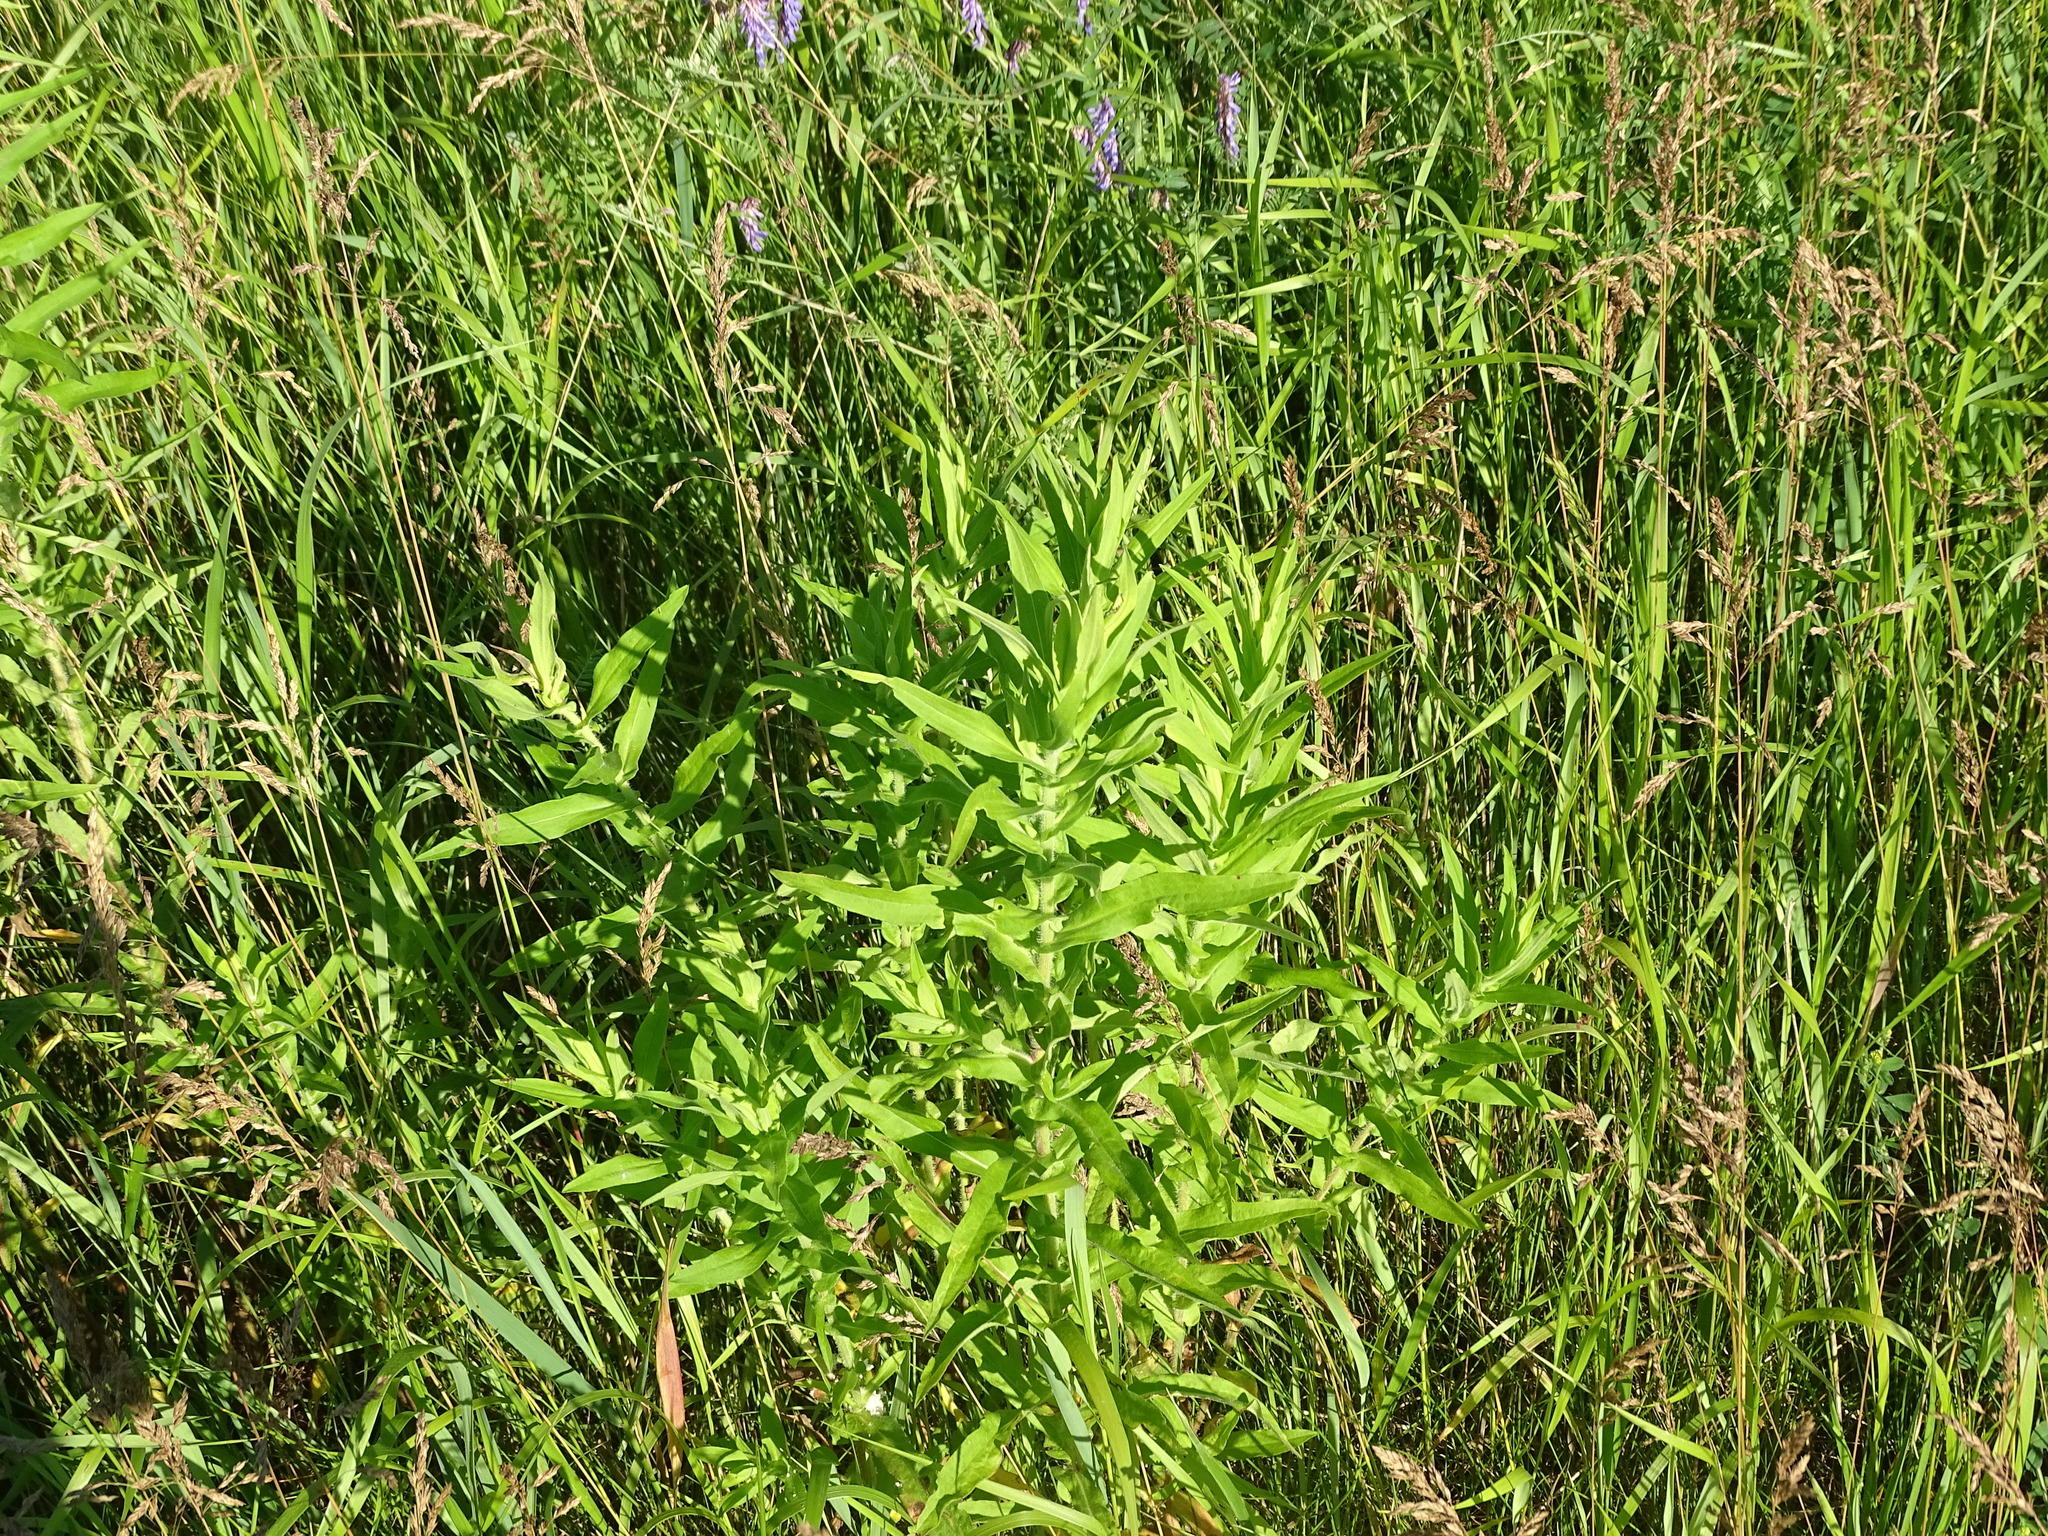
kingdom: Plantae
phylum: Tracheophyta
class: Magnoliopsida
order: Asterales
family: Asteraceae
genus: Symphyotrichum
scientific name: Symphyotrichum novae-angliae
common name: Michaelmas daisy
